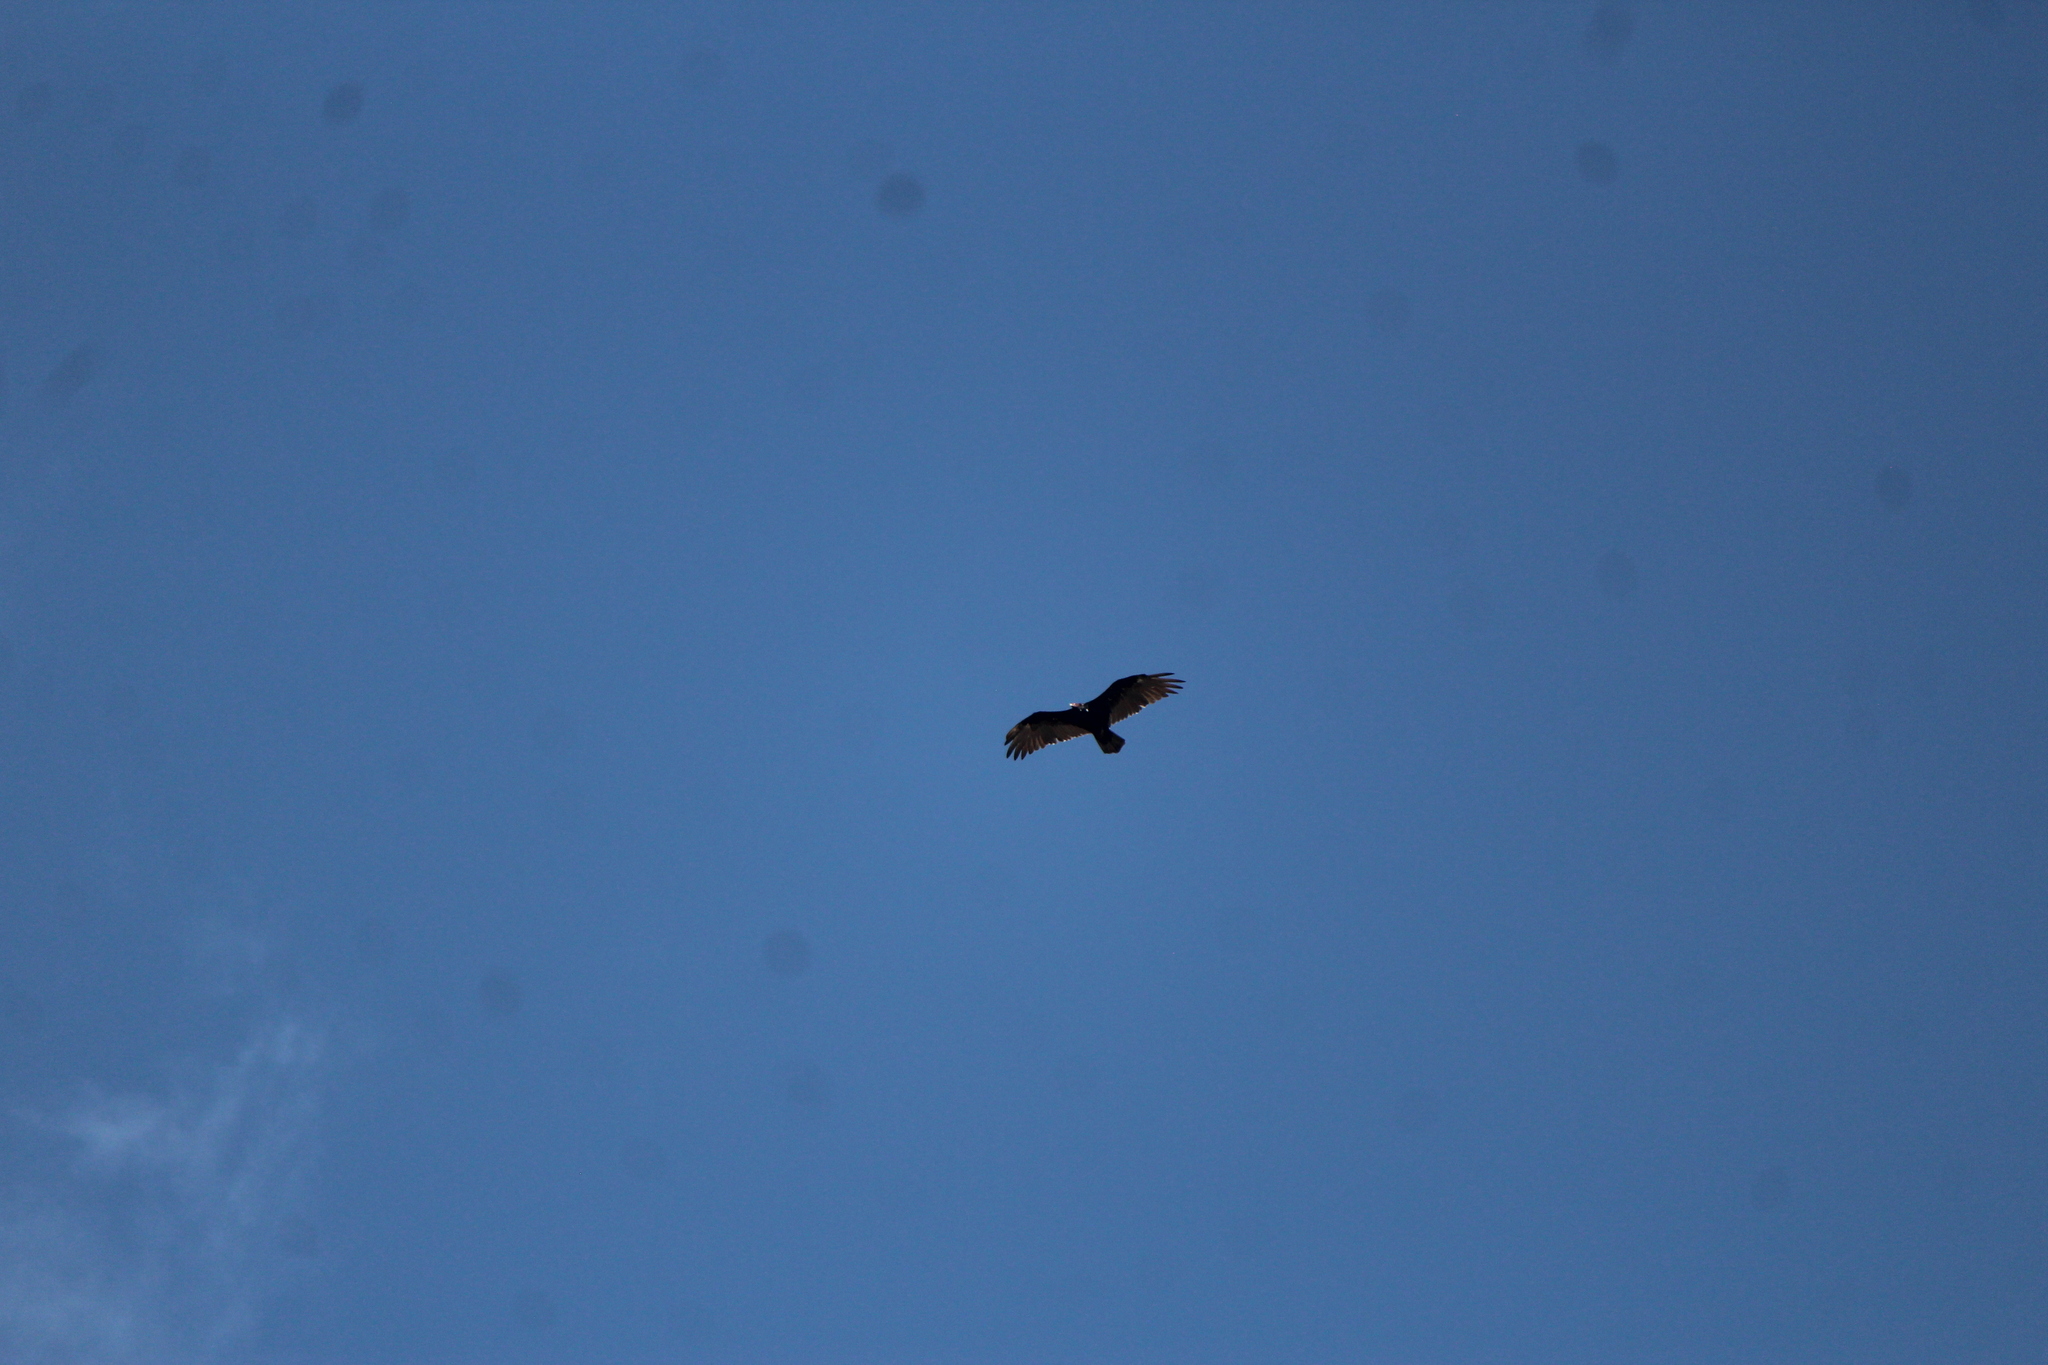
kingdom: Animalia
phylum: Chordata
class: Aves
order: Accipitriformes
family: Cathartidae
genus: Cathartes
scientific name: Cathartes aura
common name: Turkey vulture
